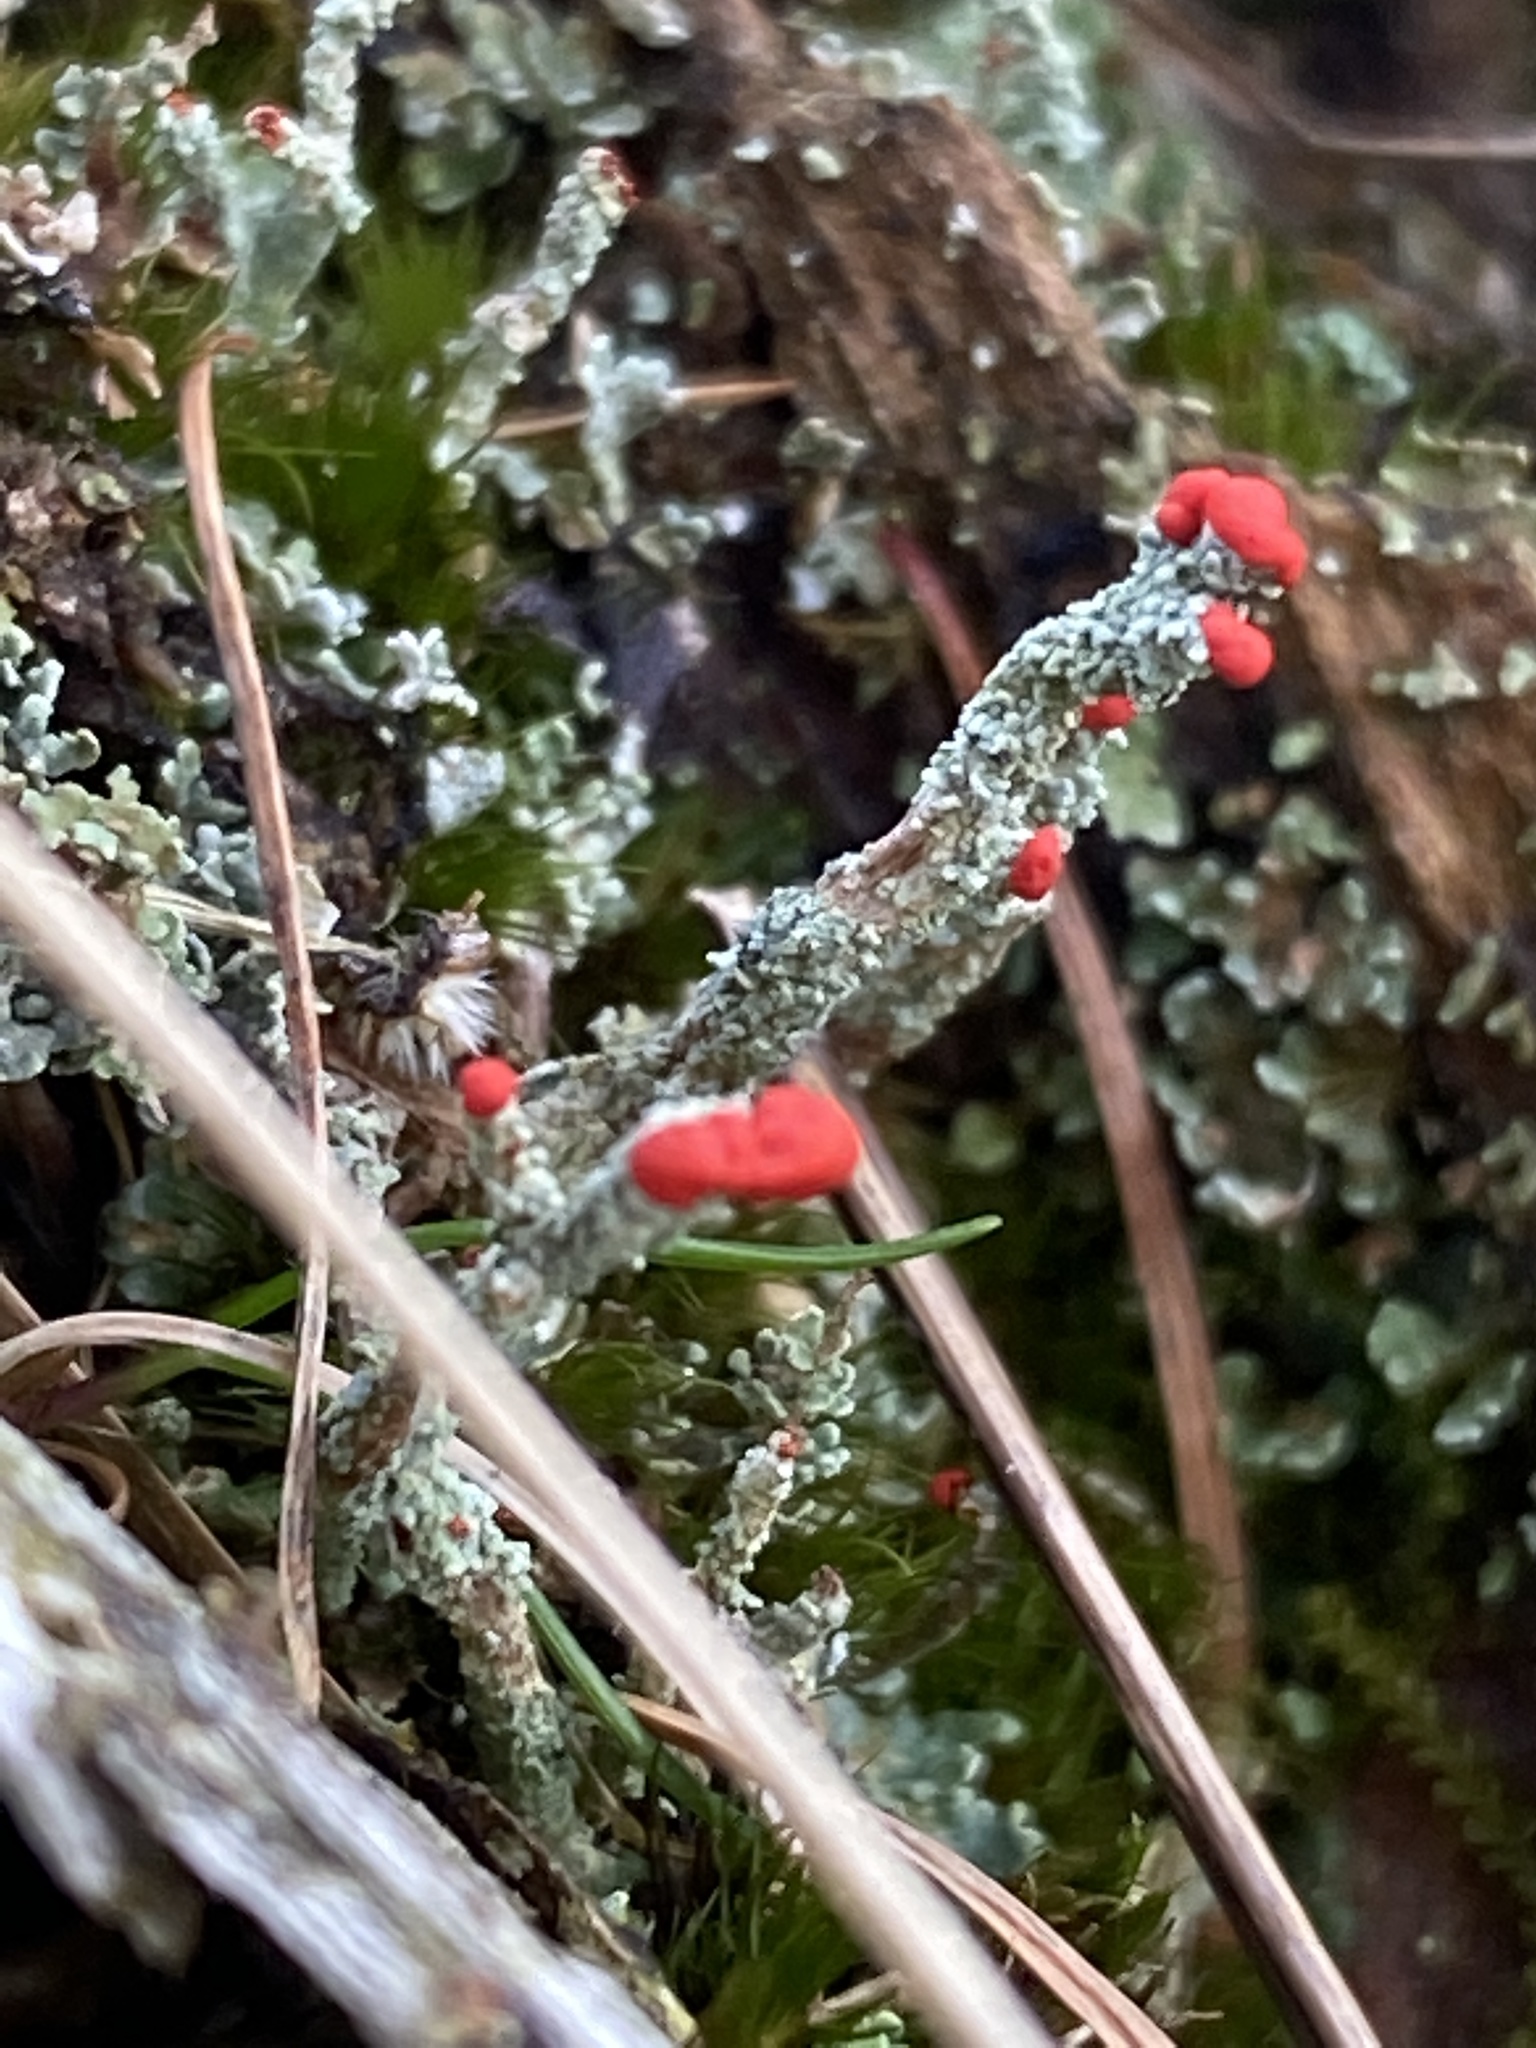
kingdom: Fungi
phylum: Ascomycota
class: Lecanoromycetes
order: Lecanorales
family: Cladoniaceae
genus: Cladonia
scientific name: Cladonia floerkeana
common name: Gritty british soldiers lichen
